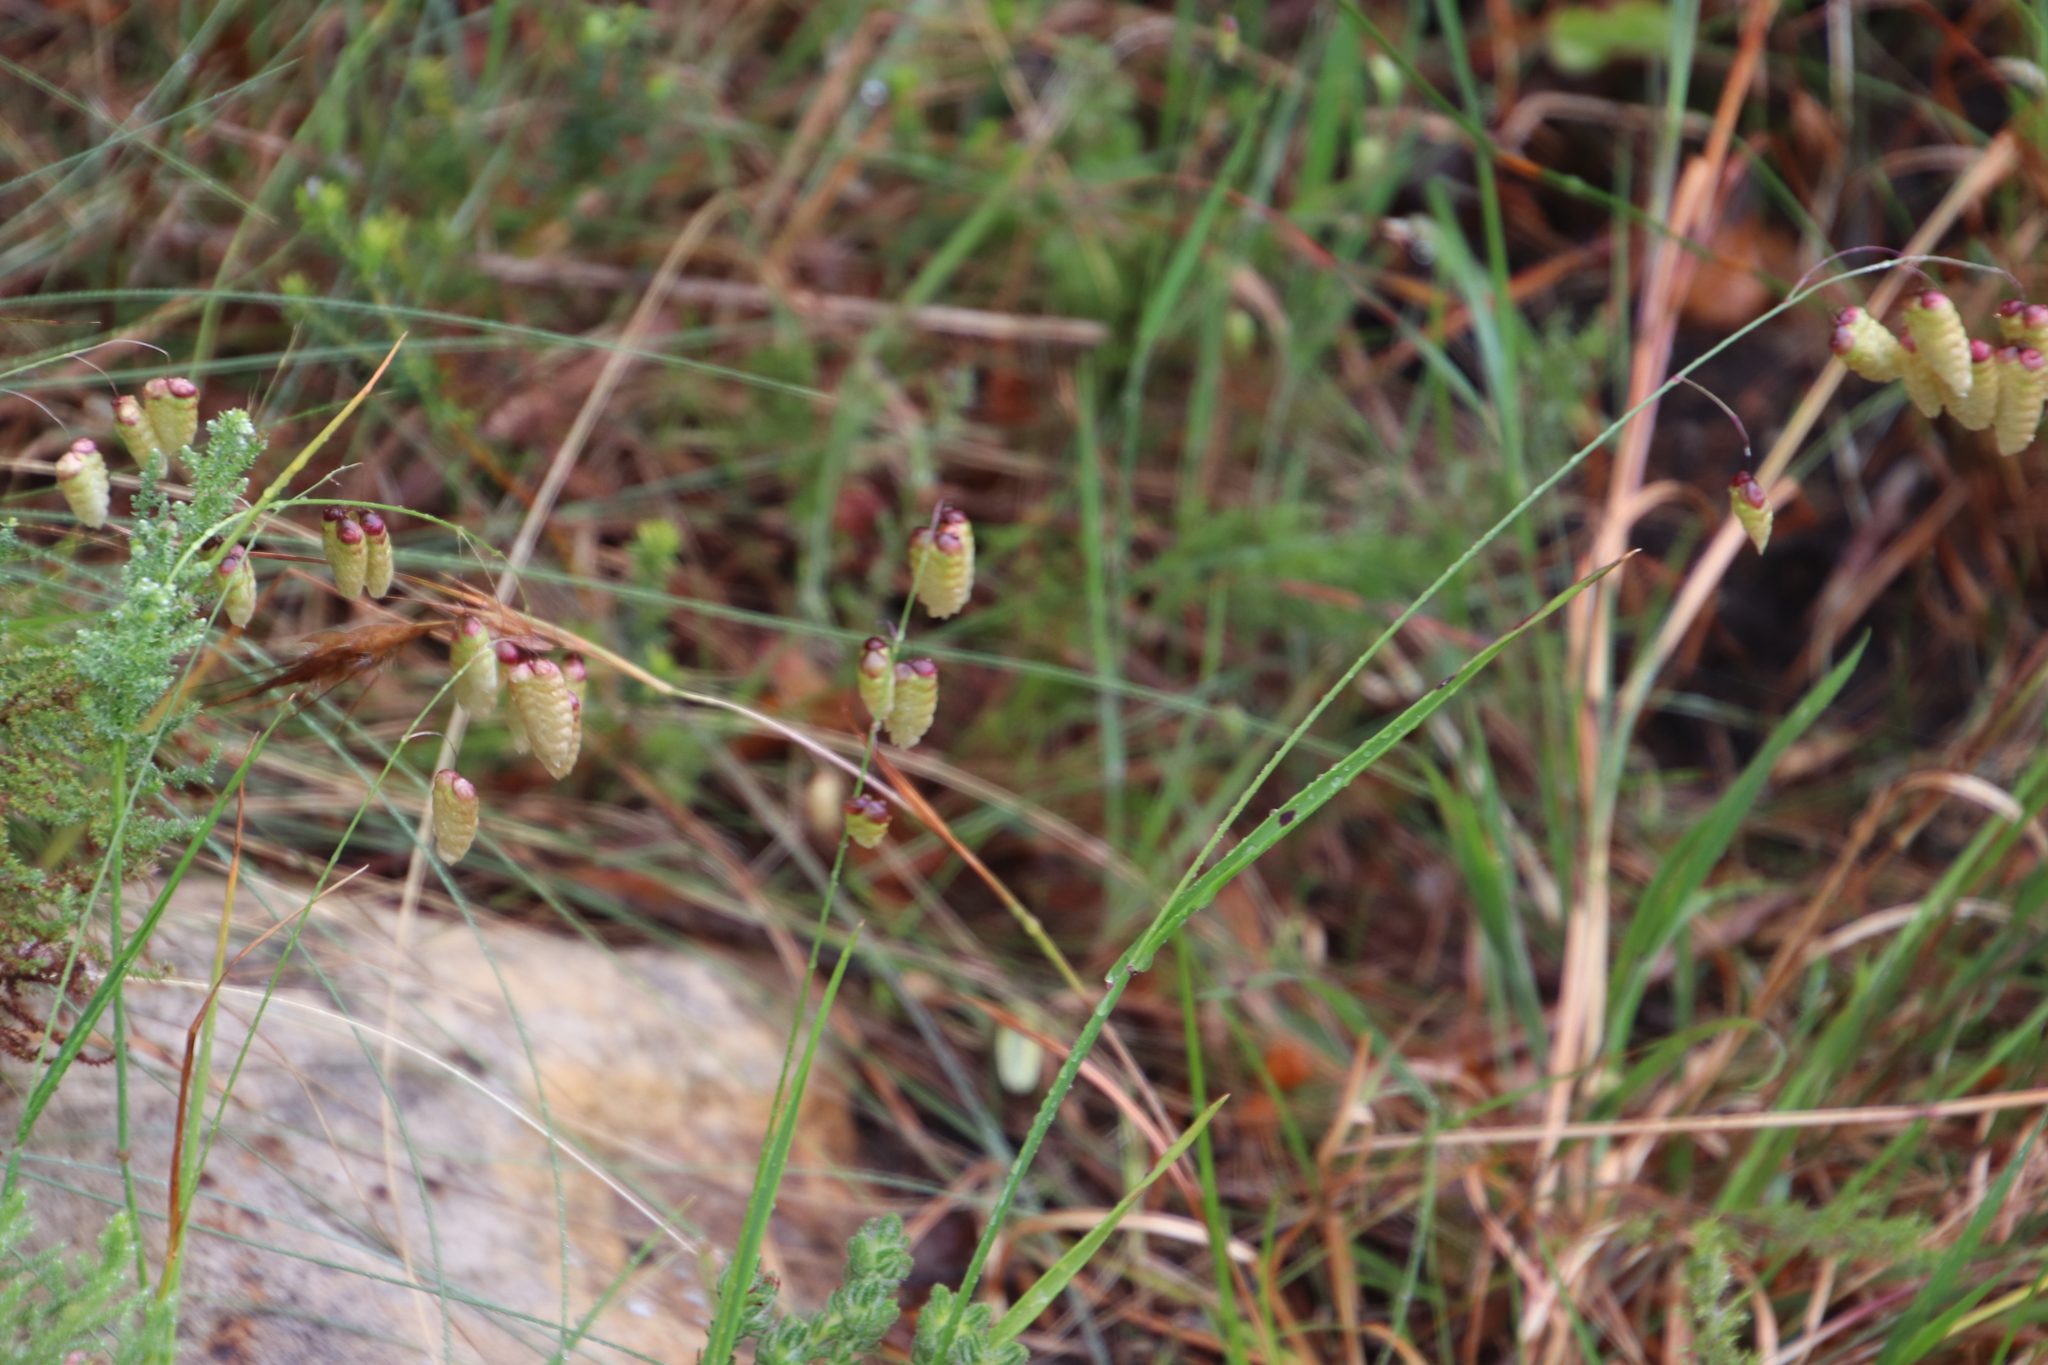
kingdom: Plantae
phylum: Tracheophyta
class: Liliopsida
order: Poales
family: Poaceae
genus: Briza
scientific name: Briza maxima
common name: Big quakinggrass
